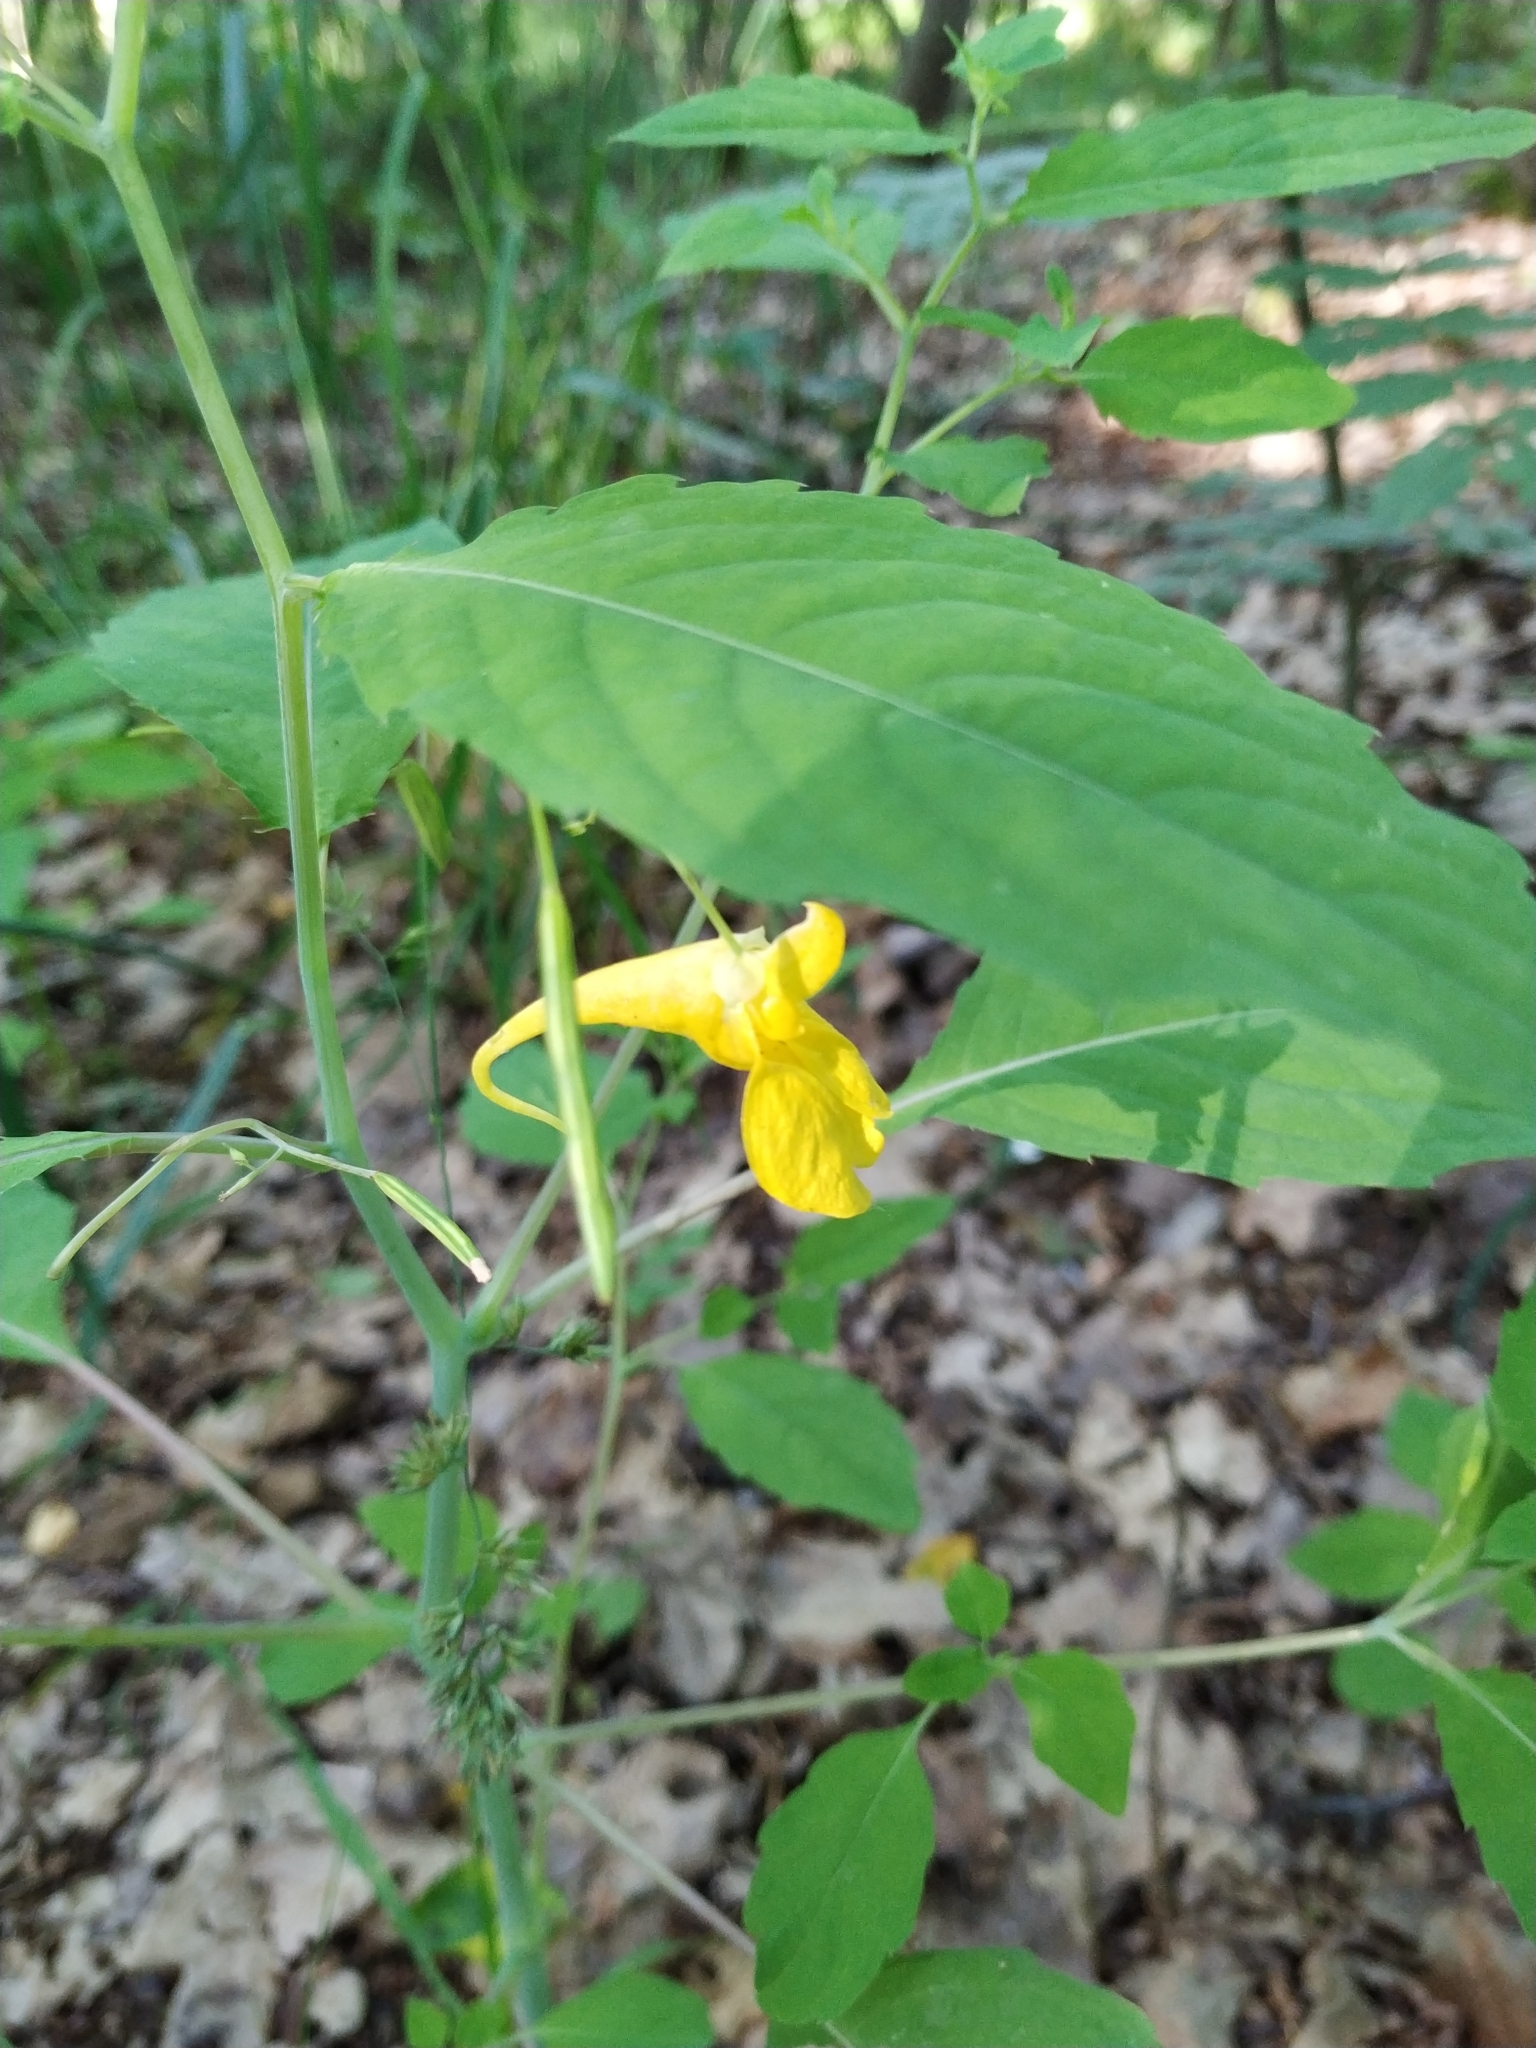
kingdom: Plantae
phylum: Tracheophyta
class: Magnoliopsida
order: Ericales
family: Balsaminaceae
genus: Impatiens
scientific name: Impatiens noli-tangere
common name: Touch-me-not balsam
